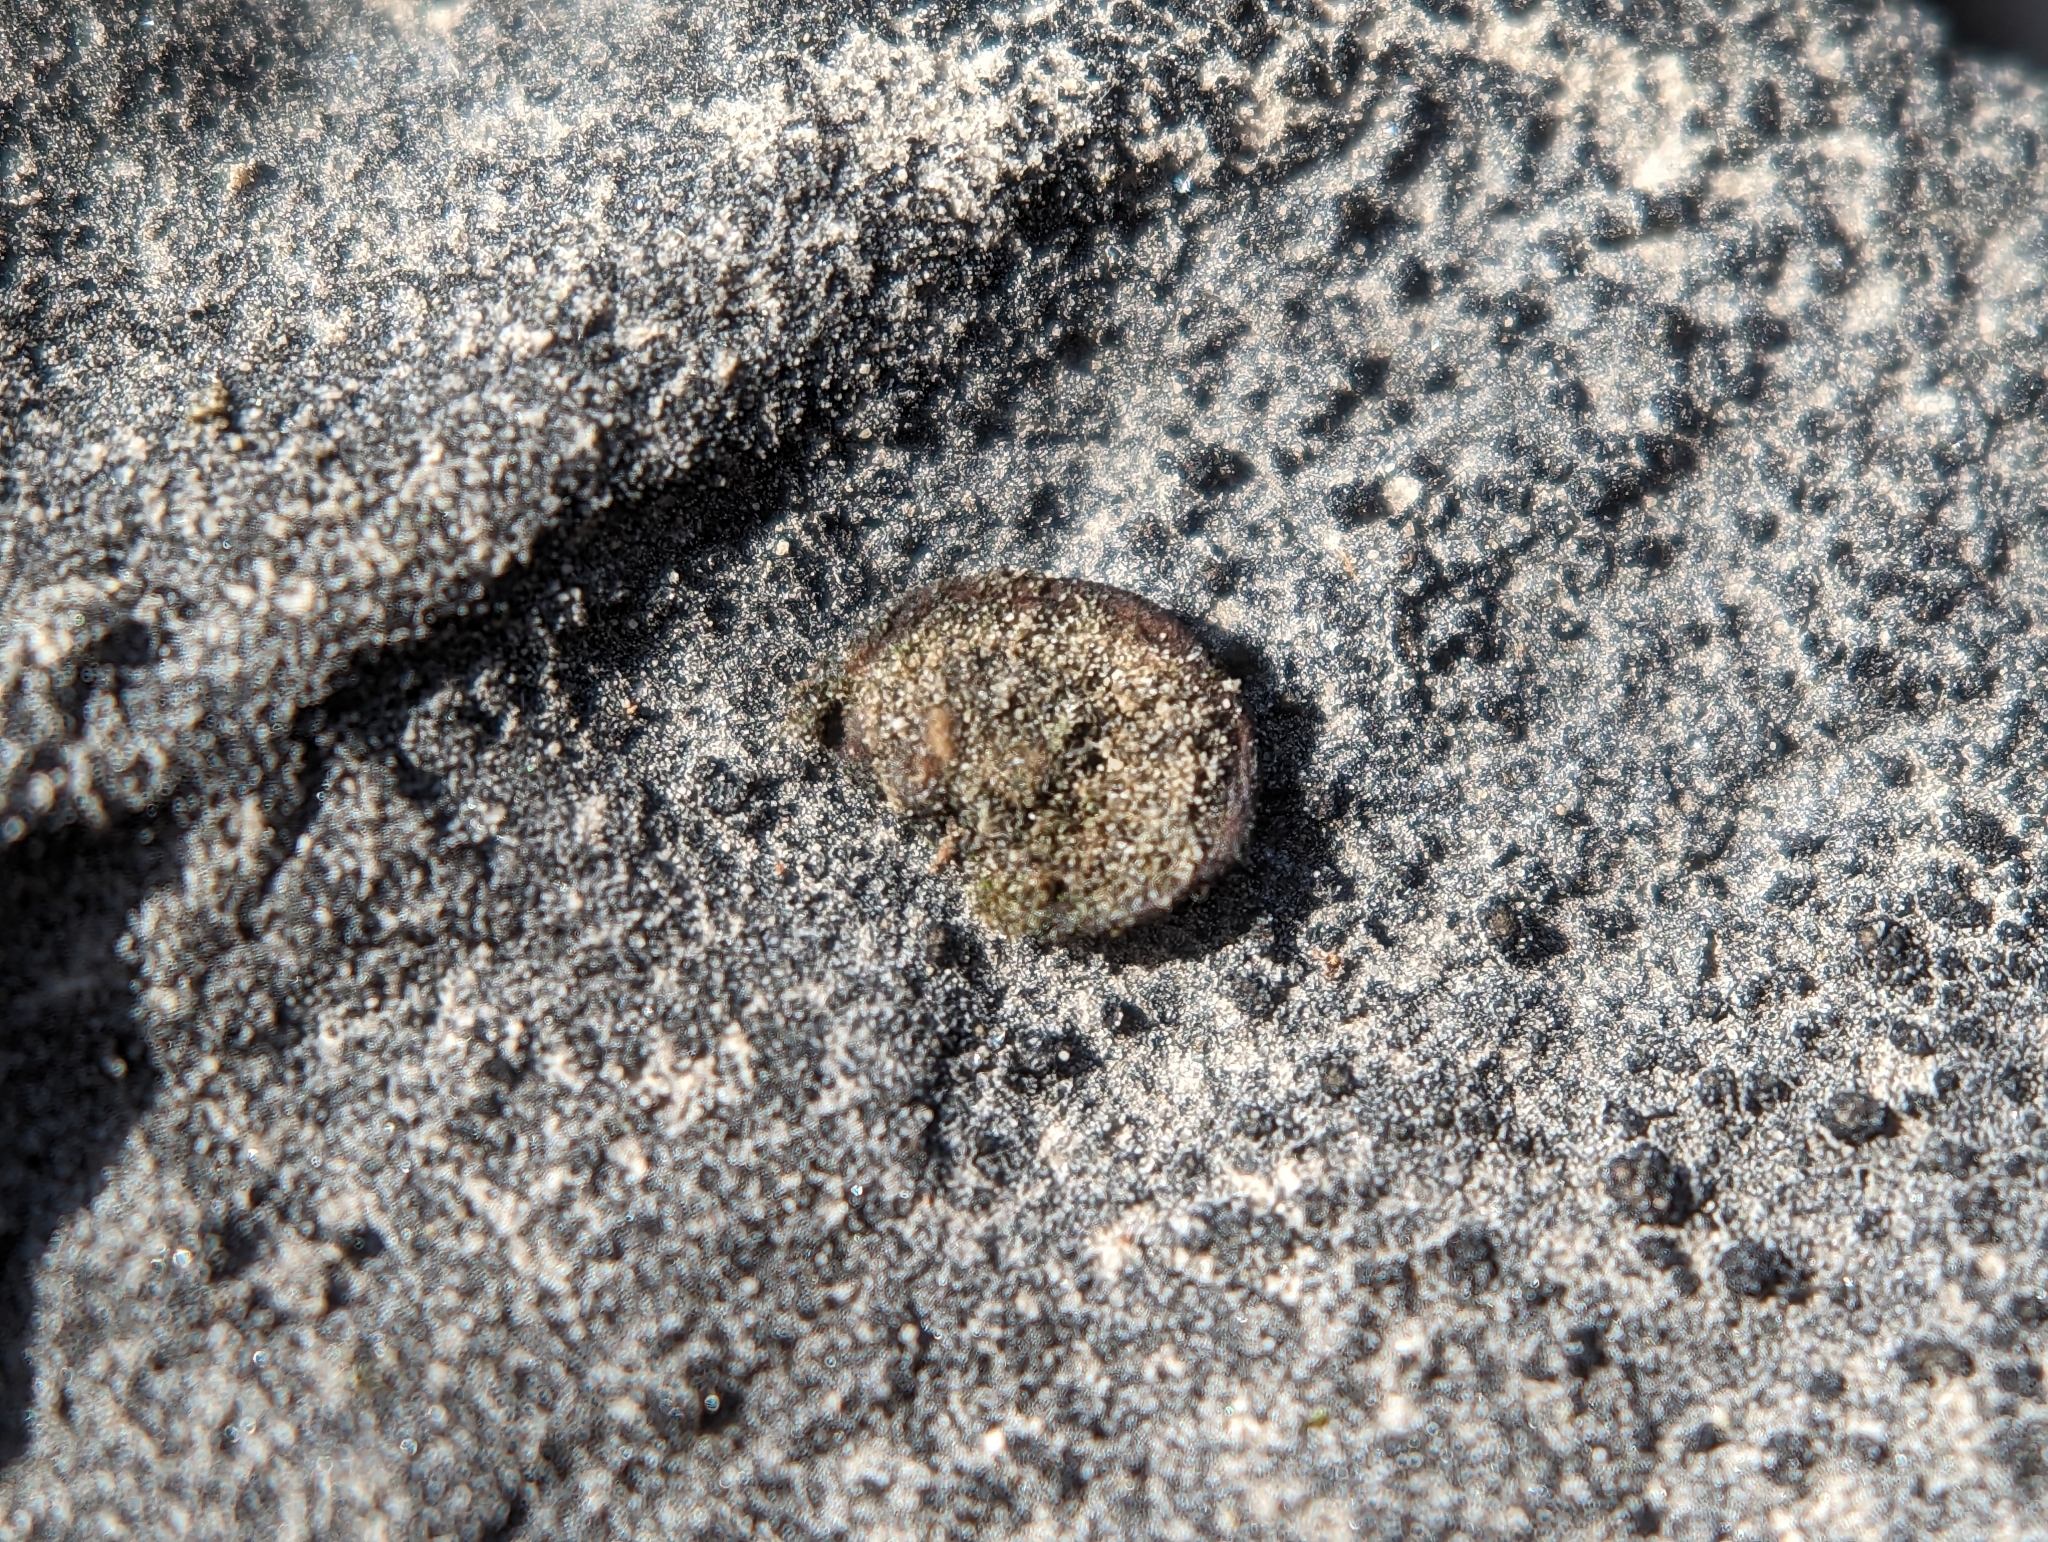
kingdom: Fungi
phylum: Ascomycota
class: Eurotiomycetes
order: Verrucariales
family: Verrucariaceae
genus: Catapyrenium
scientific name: Catapyrenium squamulosum
